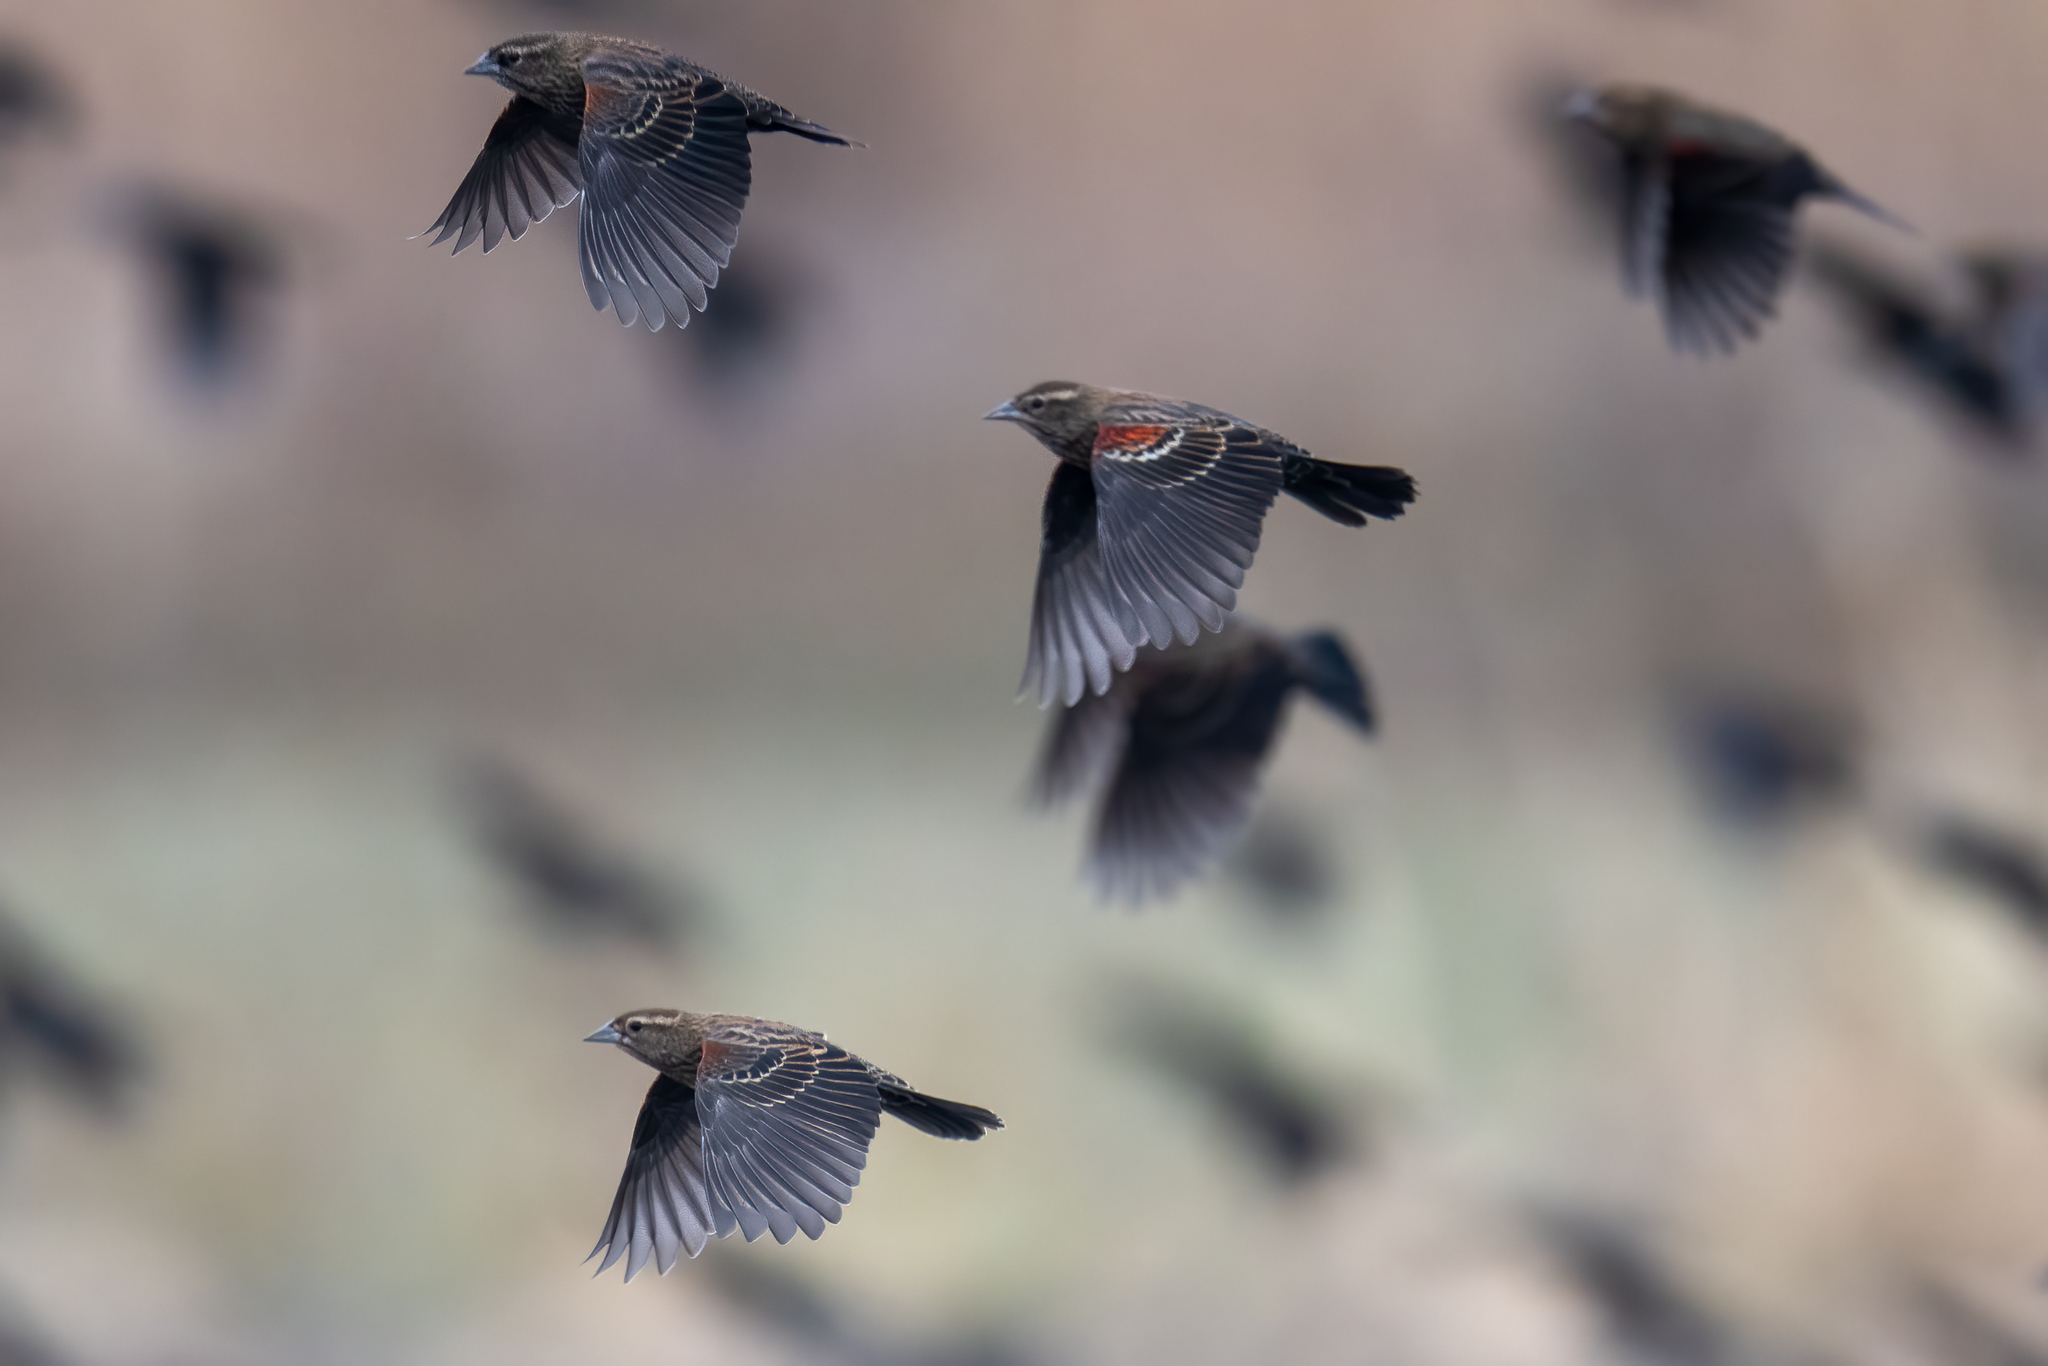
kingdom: Animalia
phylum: Chordata
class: Aves
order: Passeriformes
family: Icteridae
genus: Agelaius
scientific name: Agelaius tricolor
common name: Tricolored blackbird
